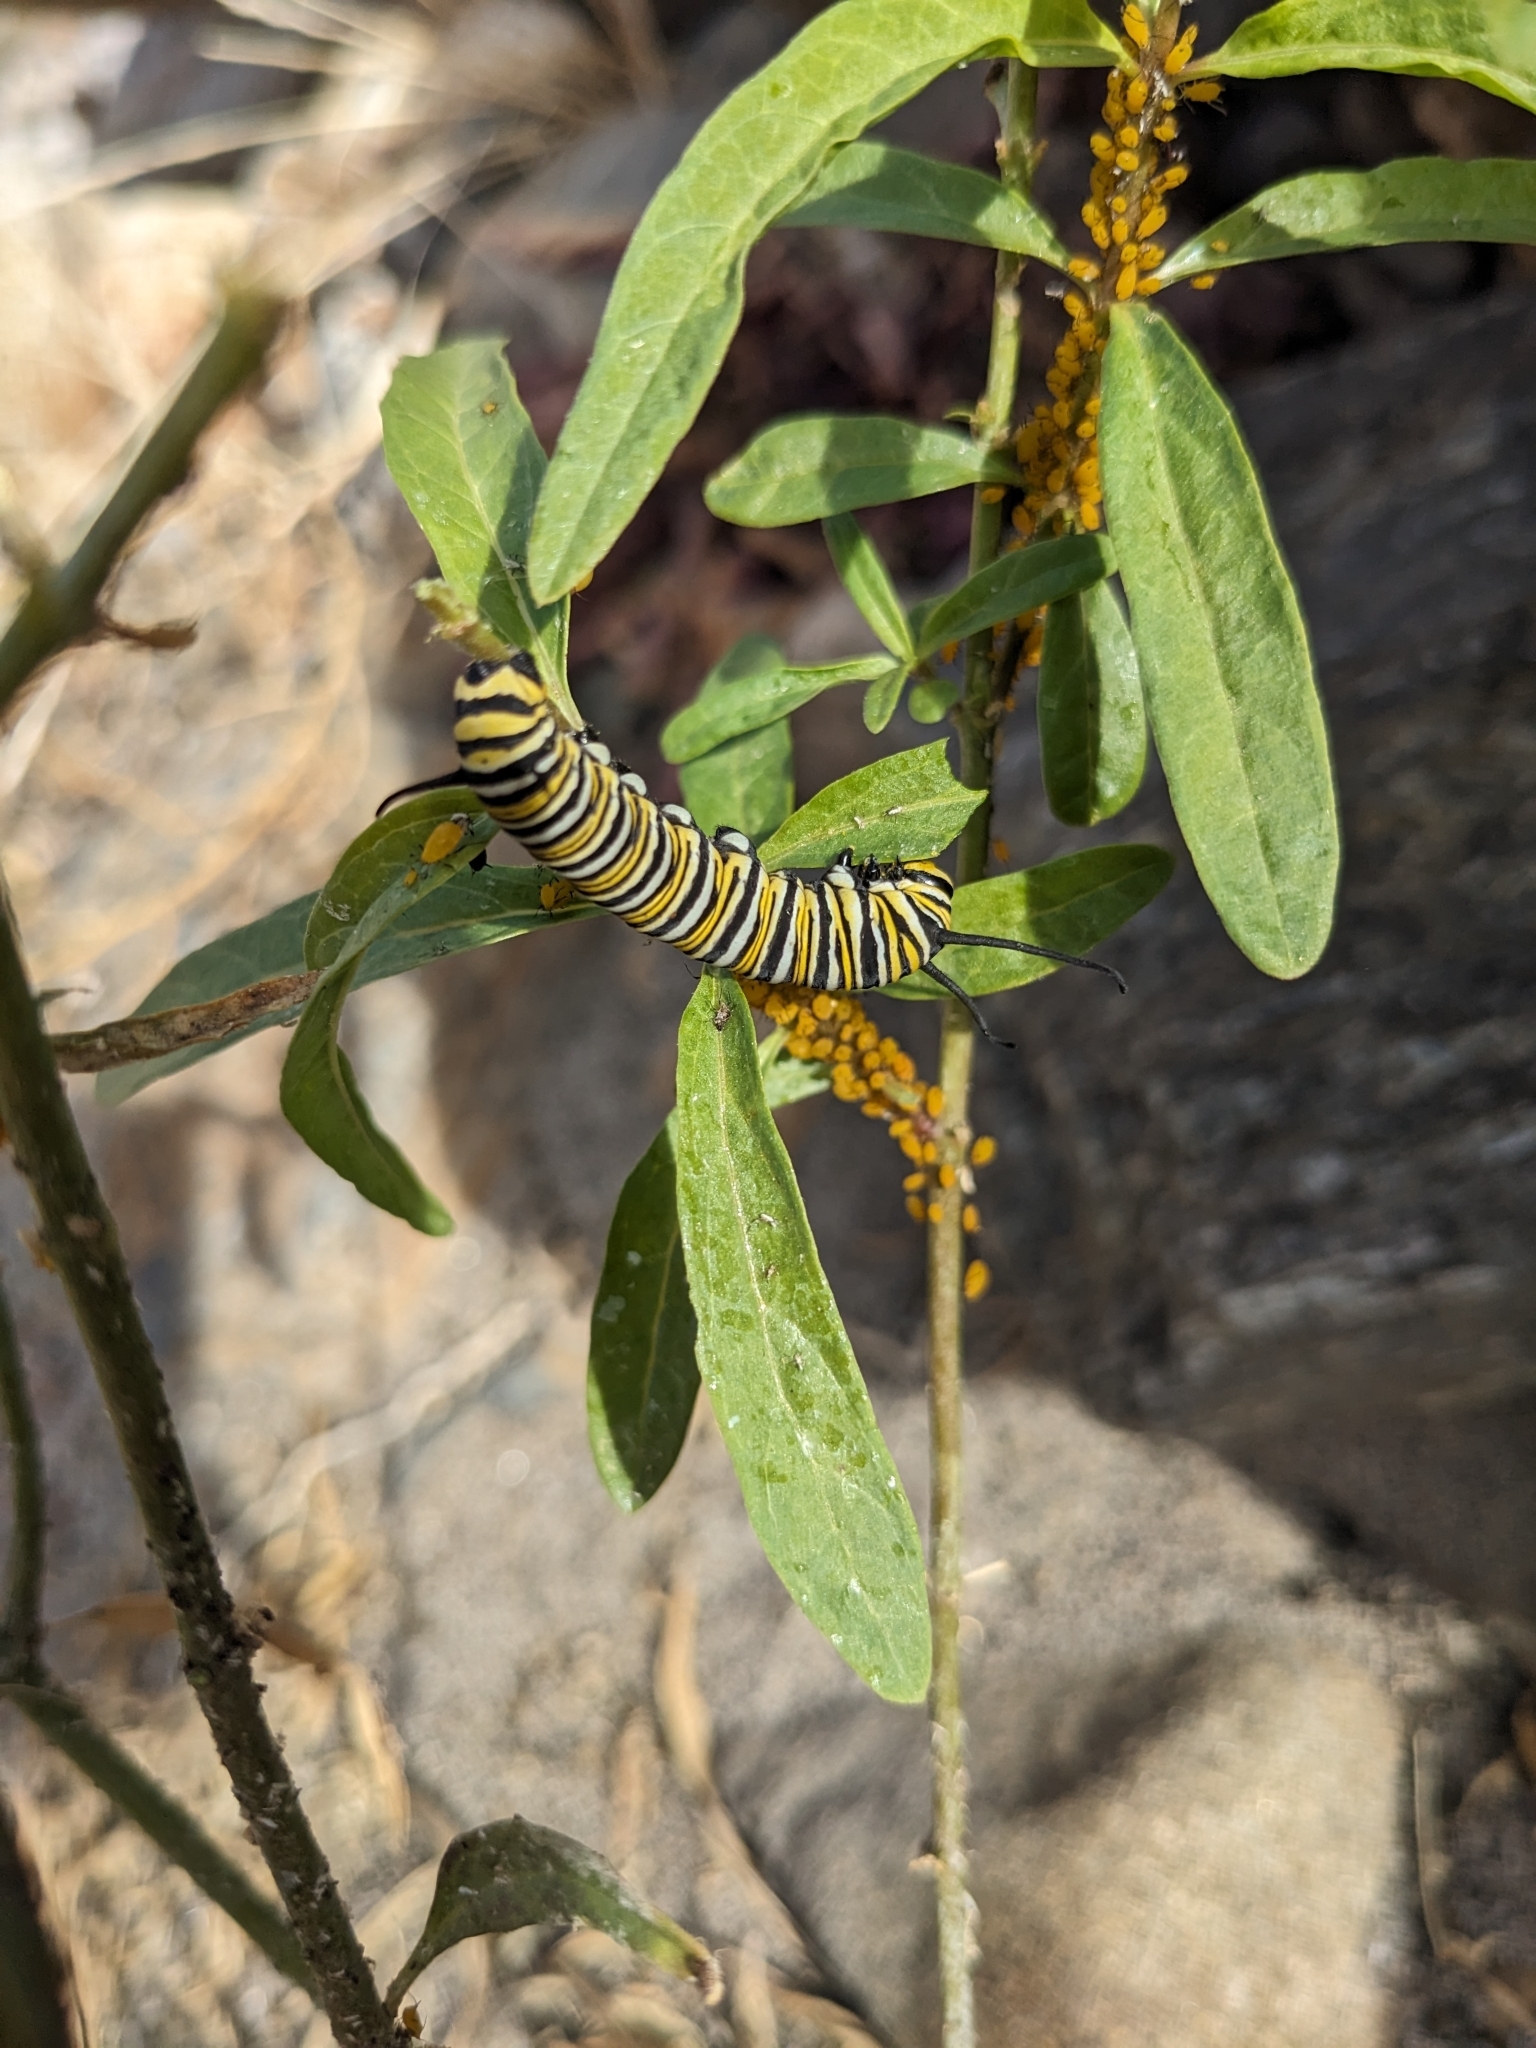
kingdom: Animalia
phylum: Arthropoda
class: Insecta
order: Lepidoptera
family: Nymphalidae
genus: Danaus
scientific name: Danaus plexippus
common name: Monarch
